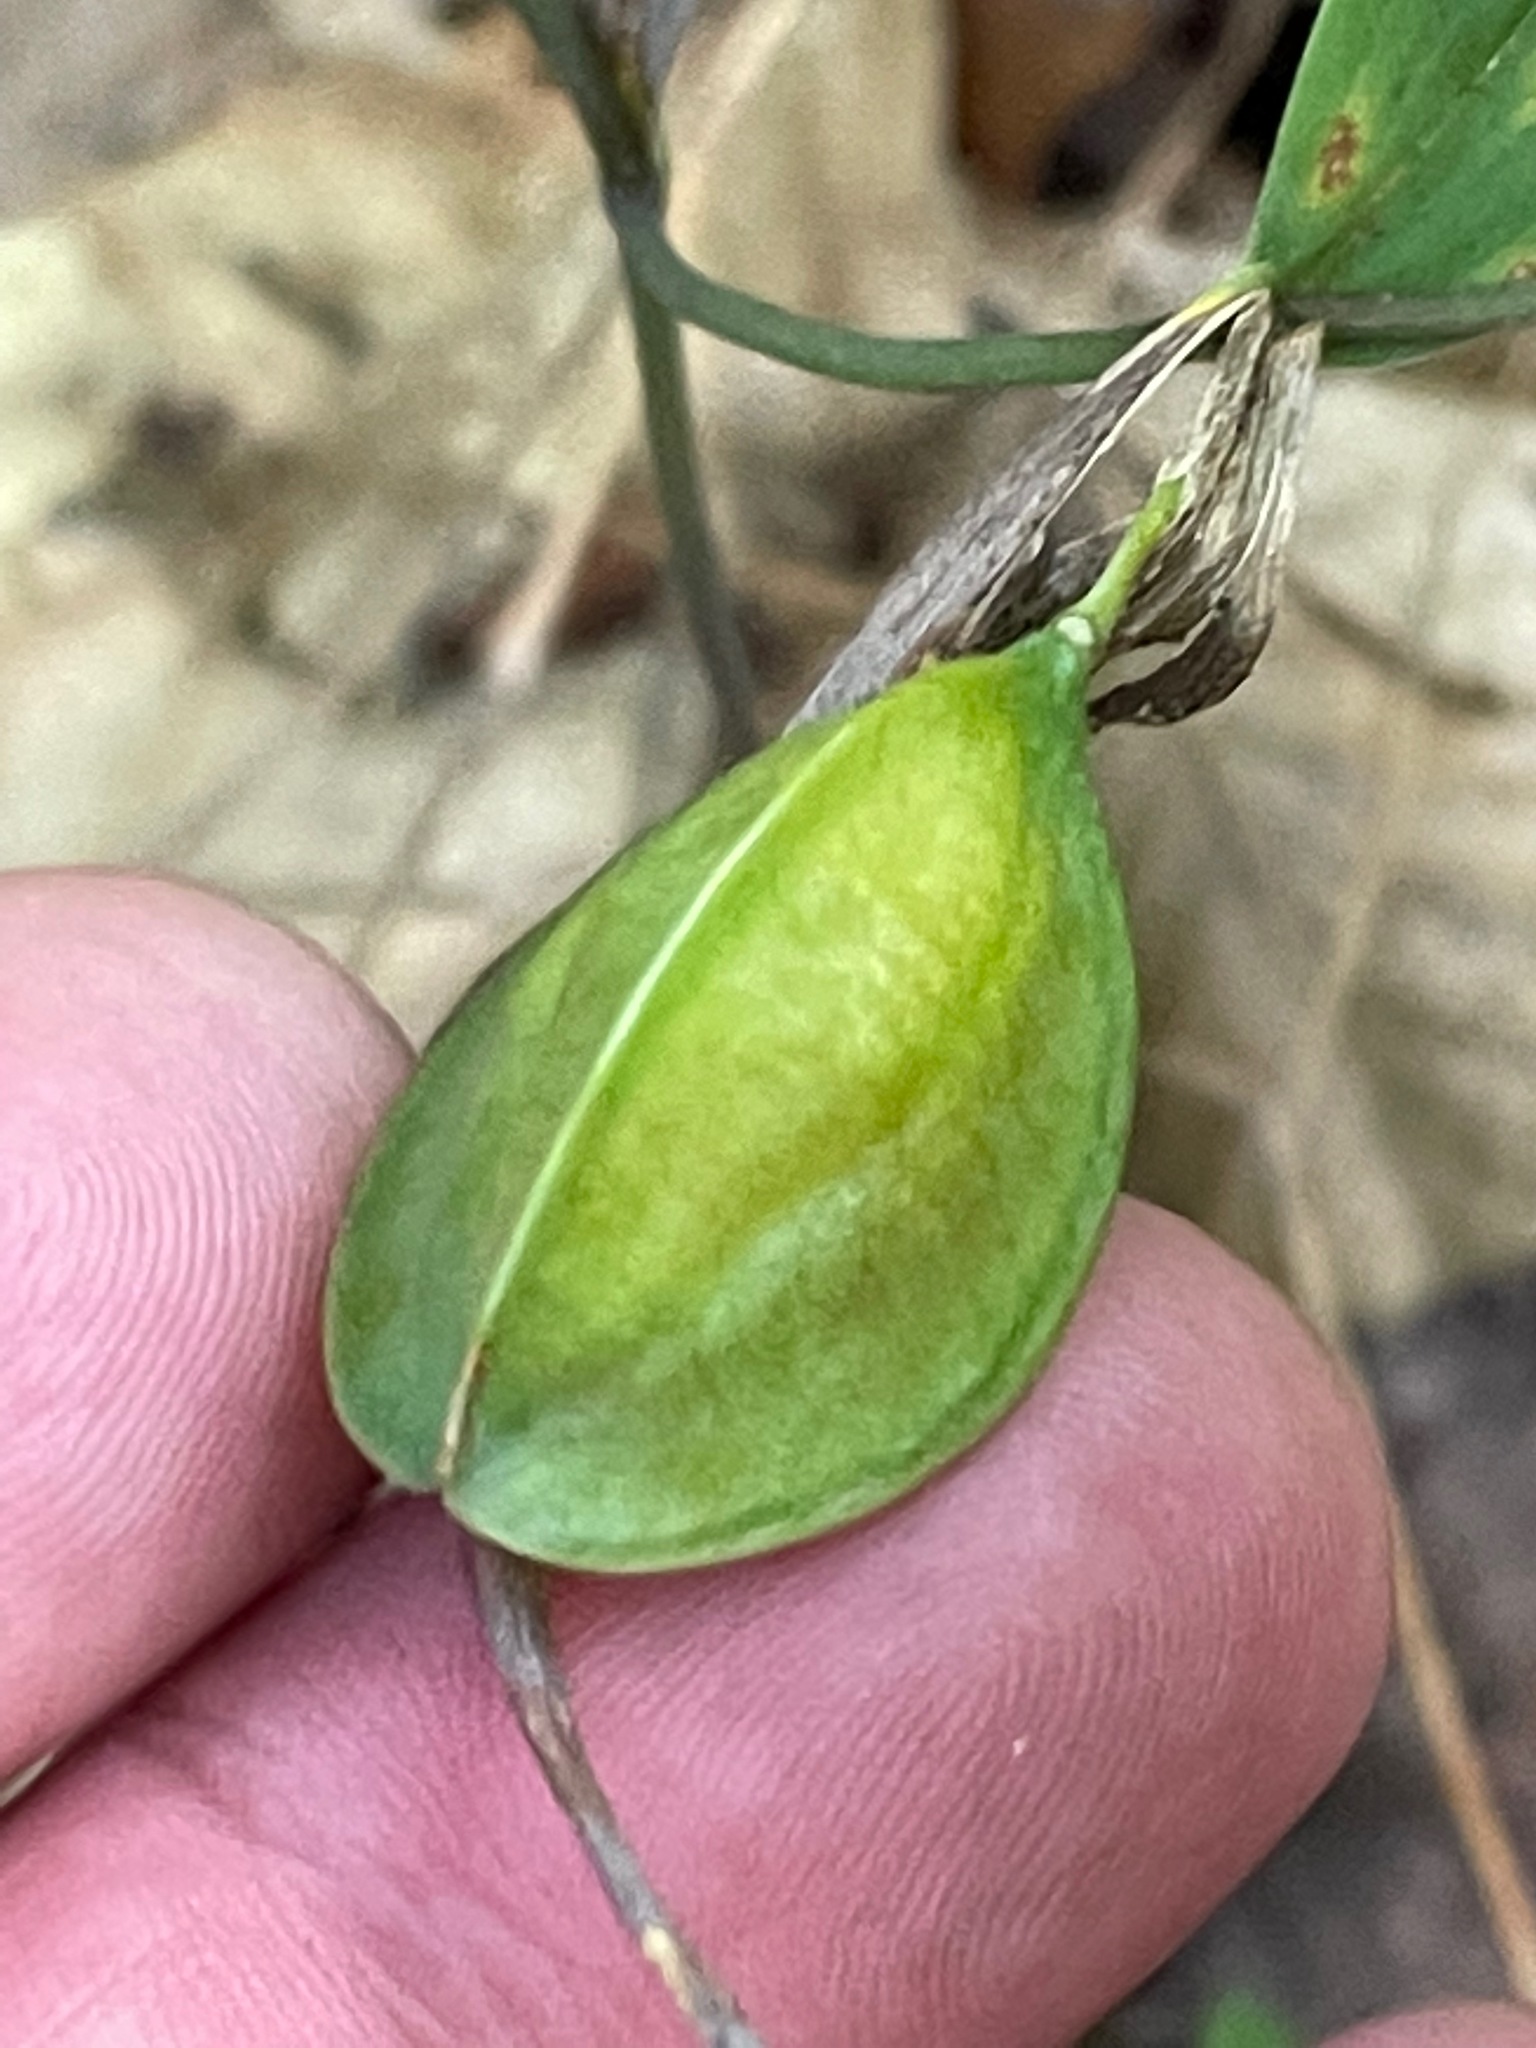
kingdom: Plantae
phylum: Tracheophyta
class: Liliopsida
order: Liliales
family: Colchicaceae
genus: Uvularia
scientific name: Uvularia sessilifolia
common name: Straw-lily
